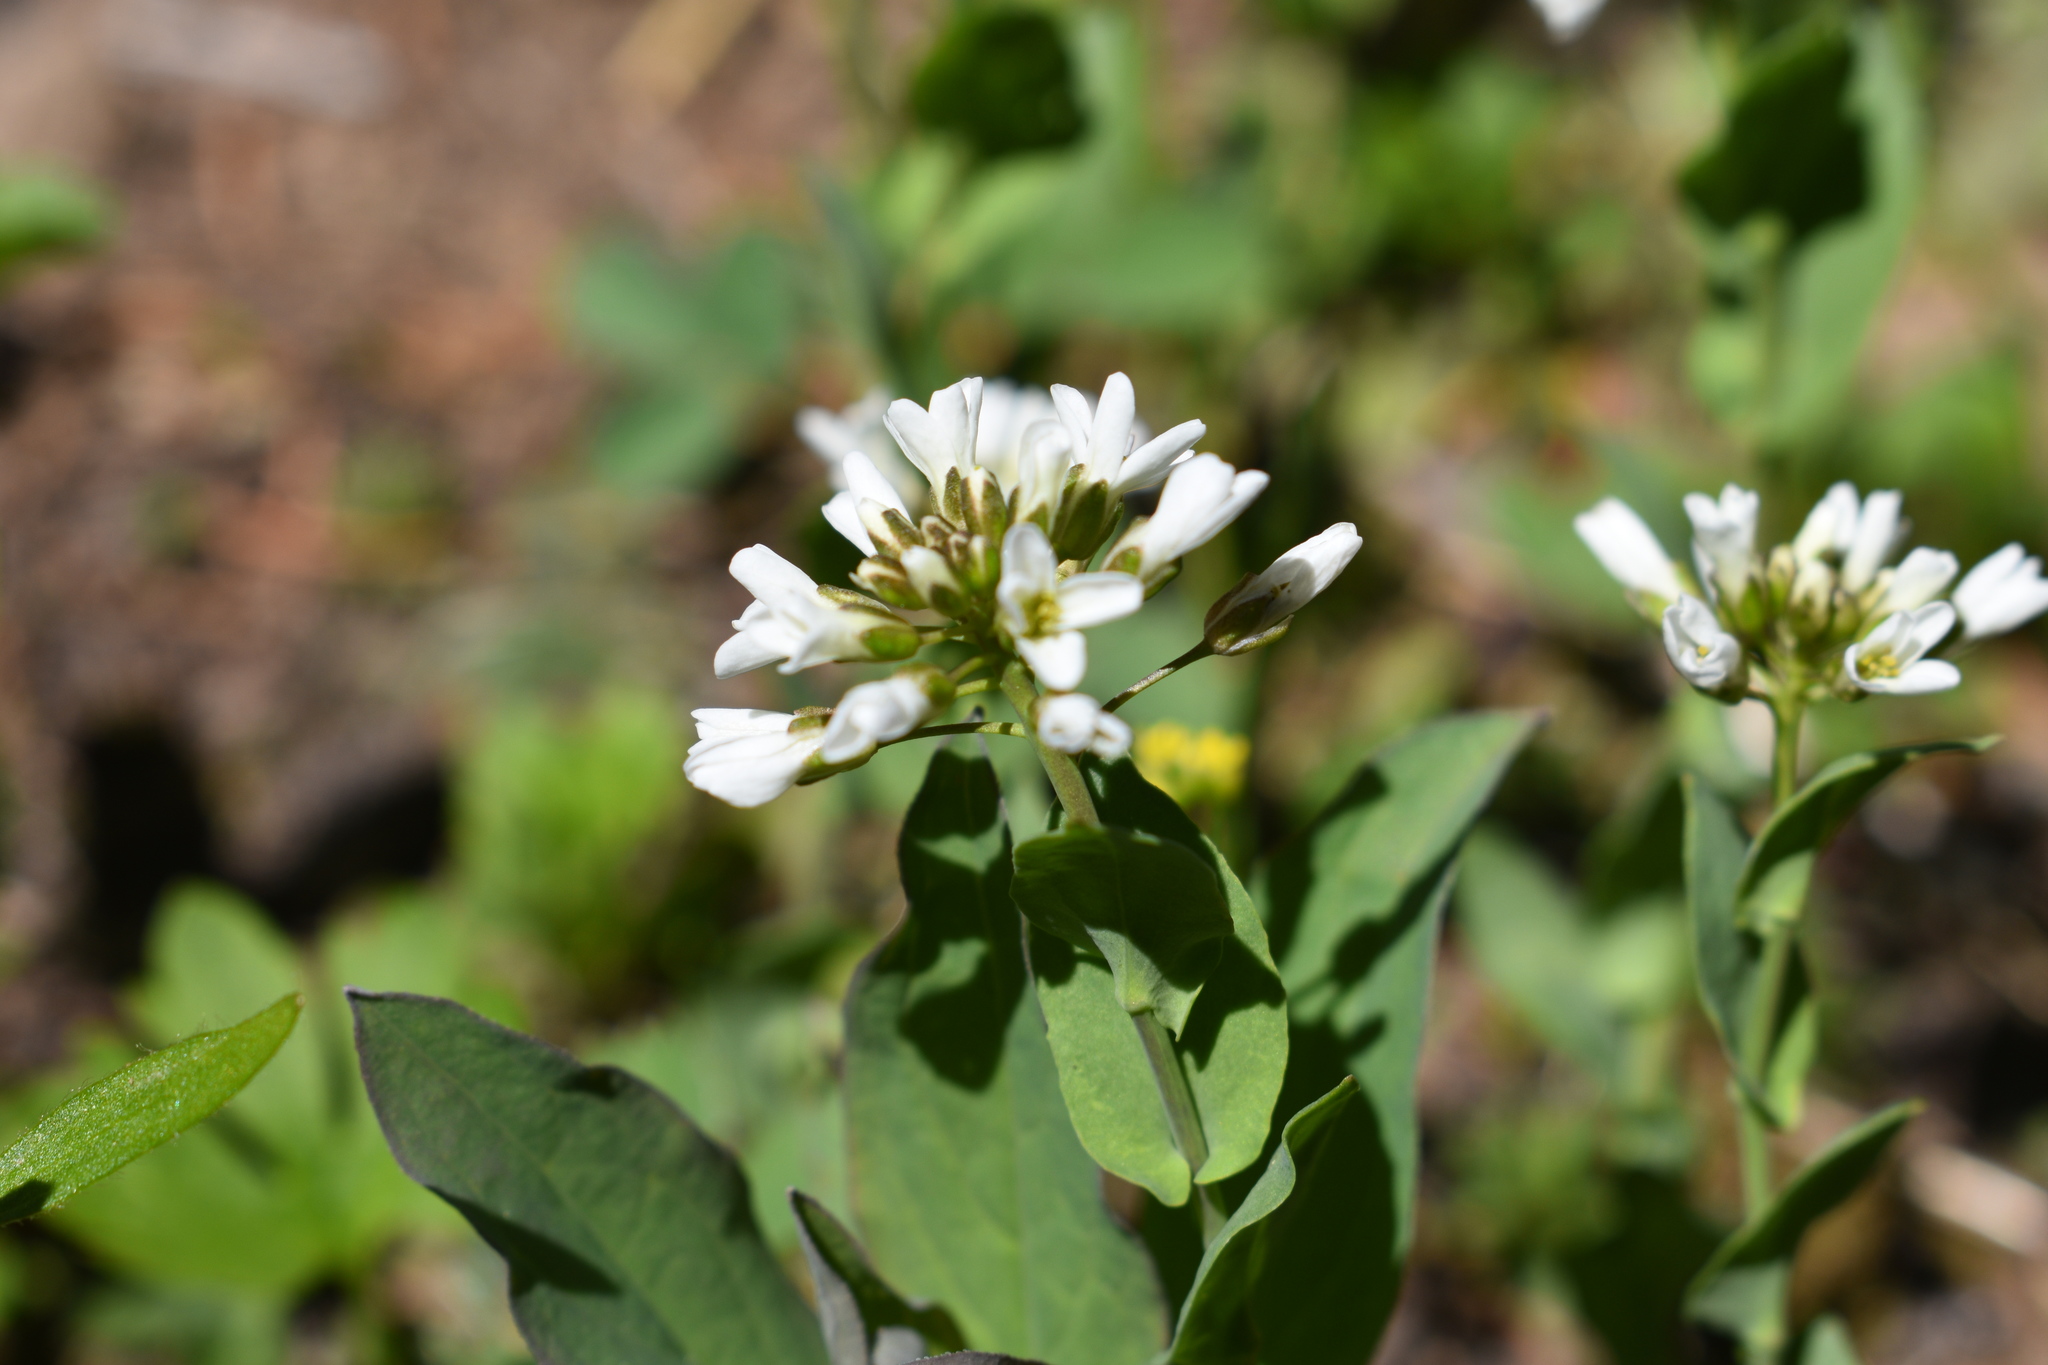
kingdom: Plantae
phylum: Tracheophyta
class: Magnoliopsida
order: Brassicales
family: Brassicaceae
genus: Noccaea
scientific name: Noccaea fendleri
